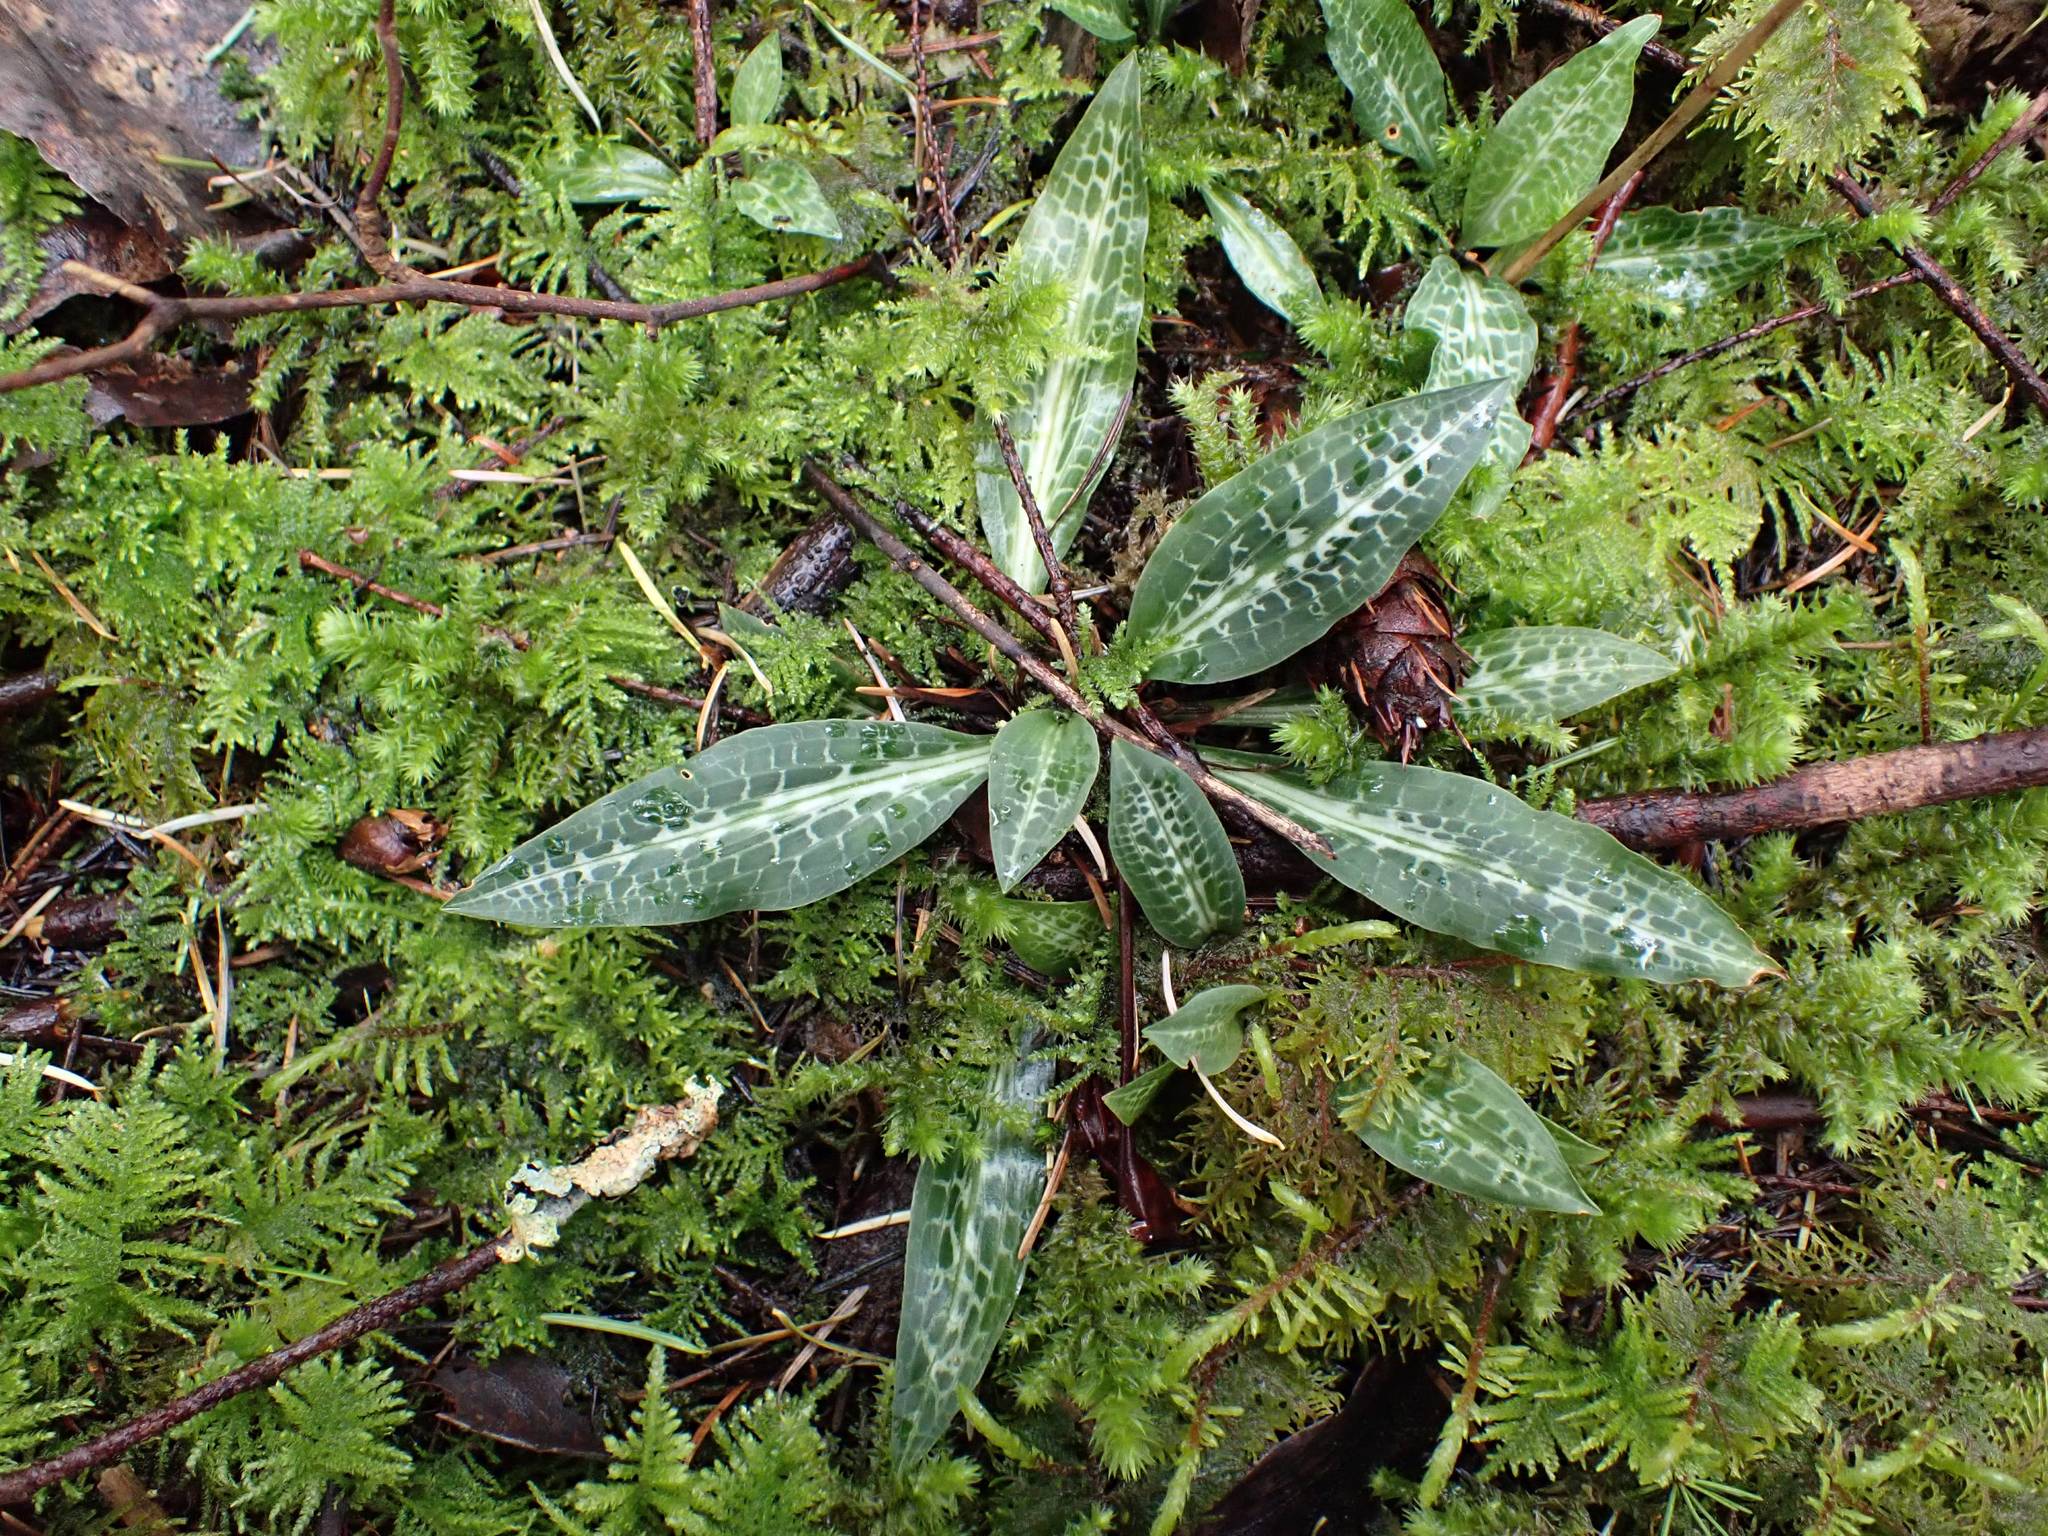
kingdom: Plantae
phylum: Tracheophyta
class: Liliopsida
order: Asparagales
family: Orchidaceae
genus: Goodyera
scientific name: Goodyera oblongifolia
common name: Giant rattlesnake-plantain
